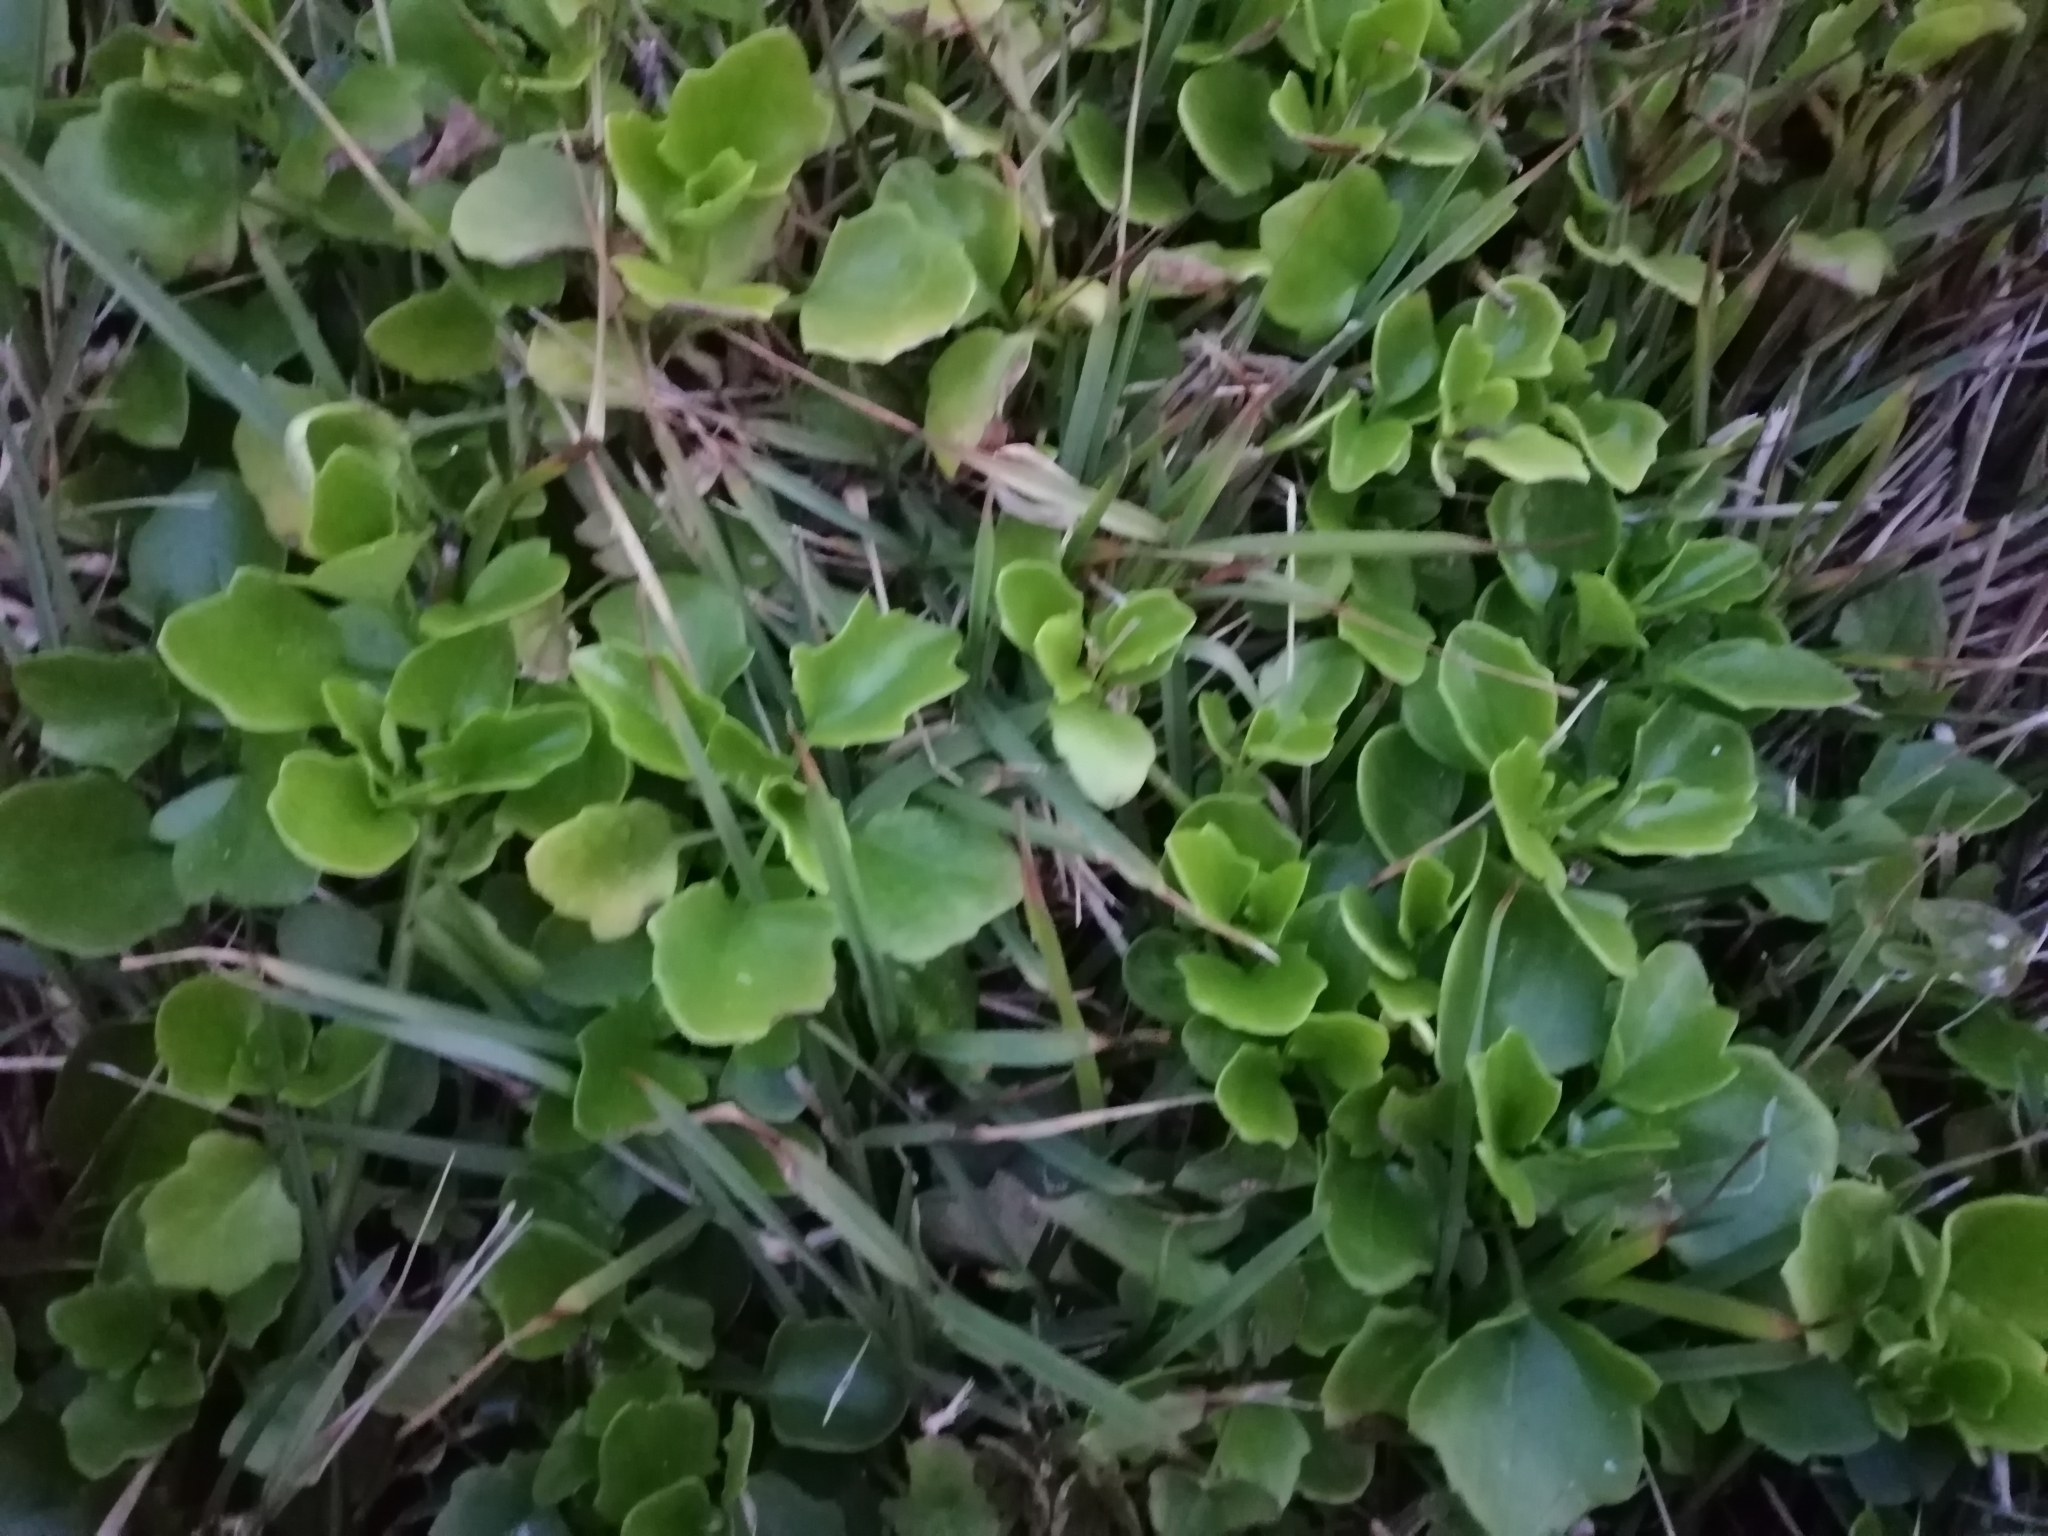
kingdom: Plantae
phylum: Tracheophyta
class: Magnoliopsida
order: Asterales
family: Asteraceae
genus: Senecio
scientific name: Senecio angulatus
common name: Climbing groundsel
